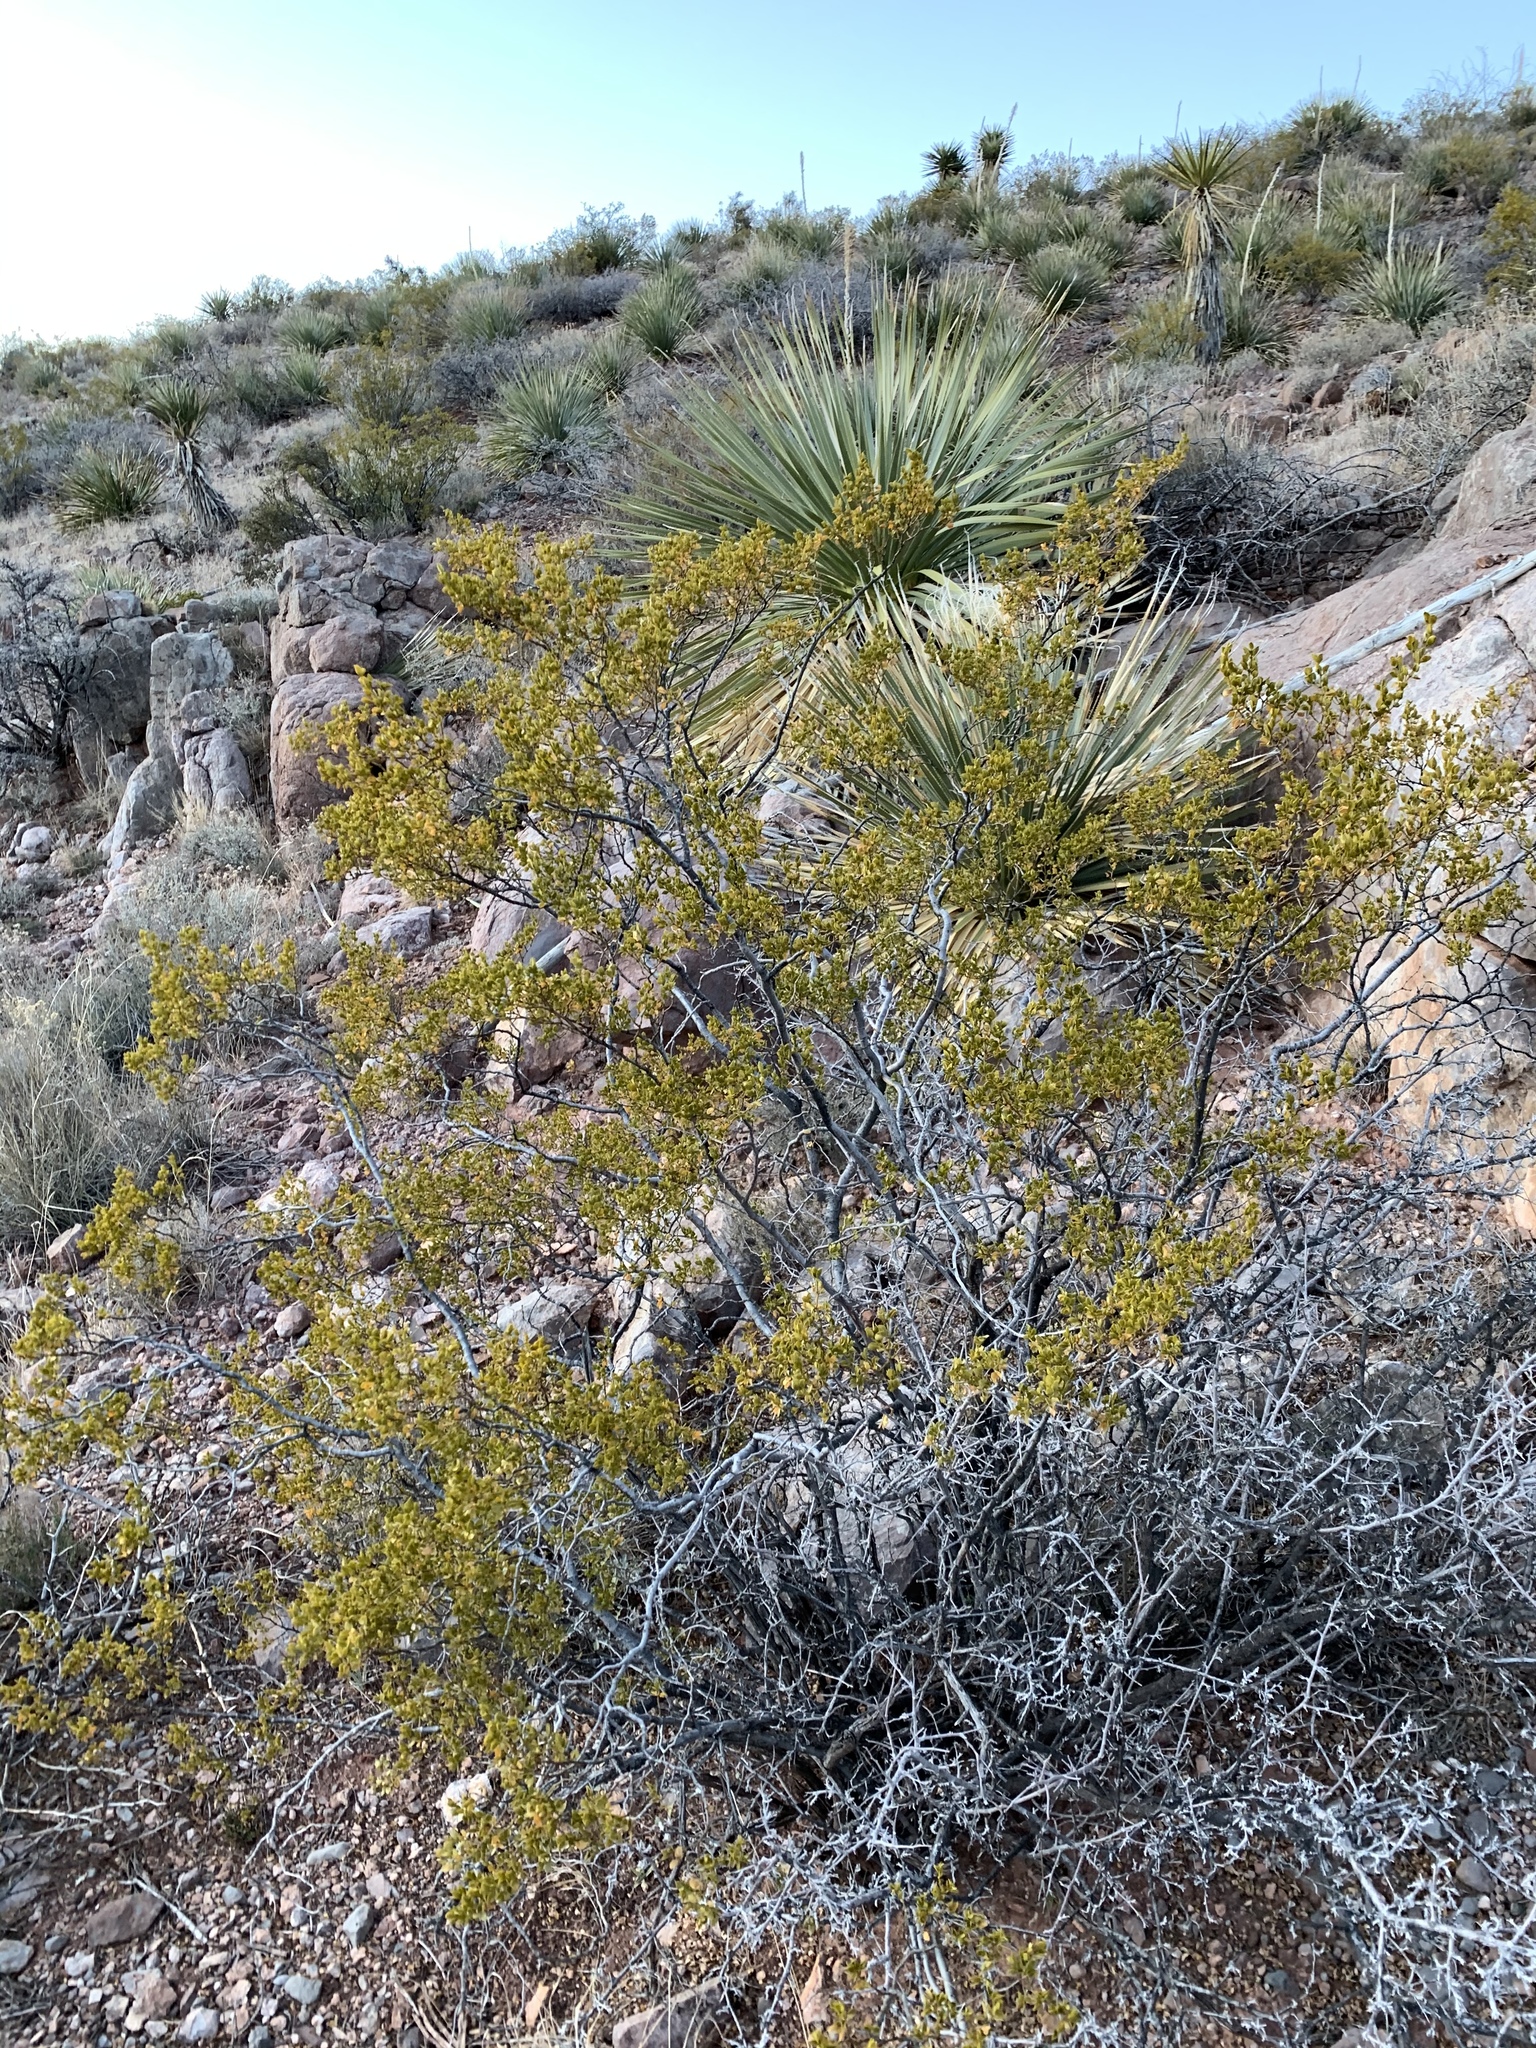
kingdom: Plantae
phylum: Tracheophyta
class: Magnoliopsida
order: Zygophyllales
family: Zygophyllaceae
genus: Larrea
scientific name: Larrea tridentata
